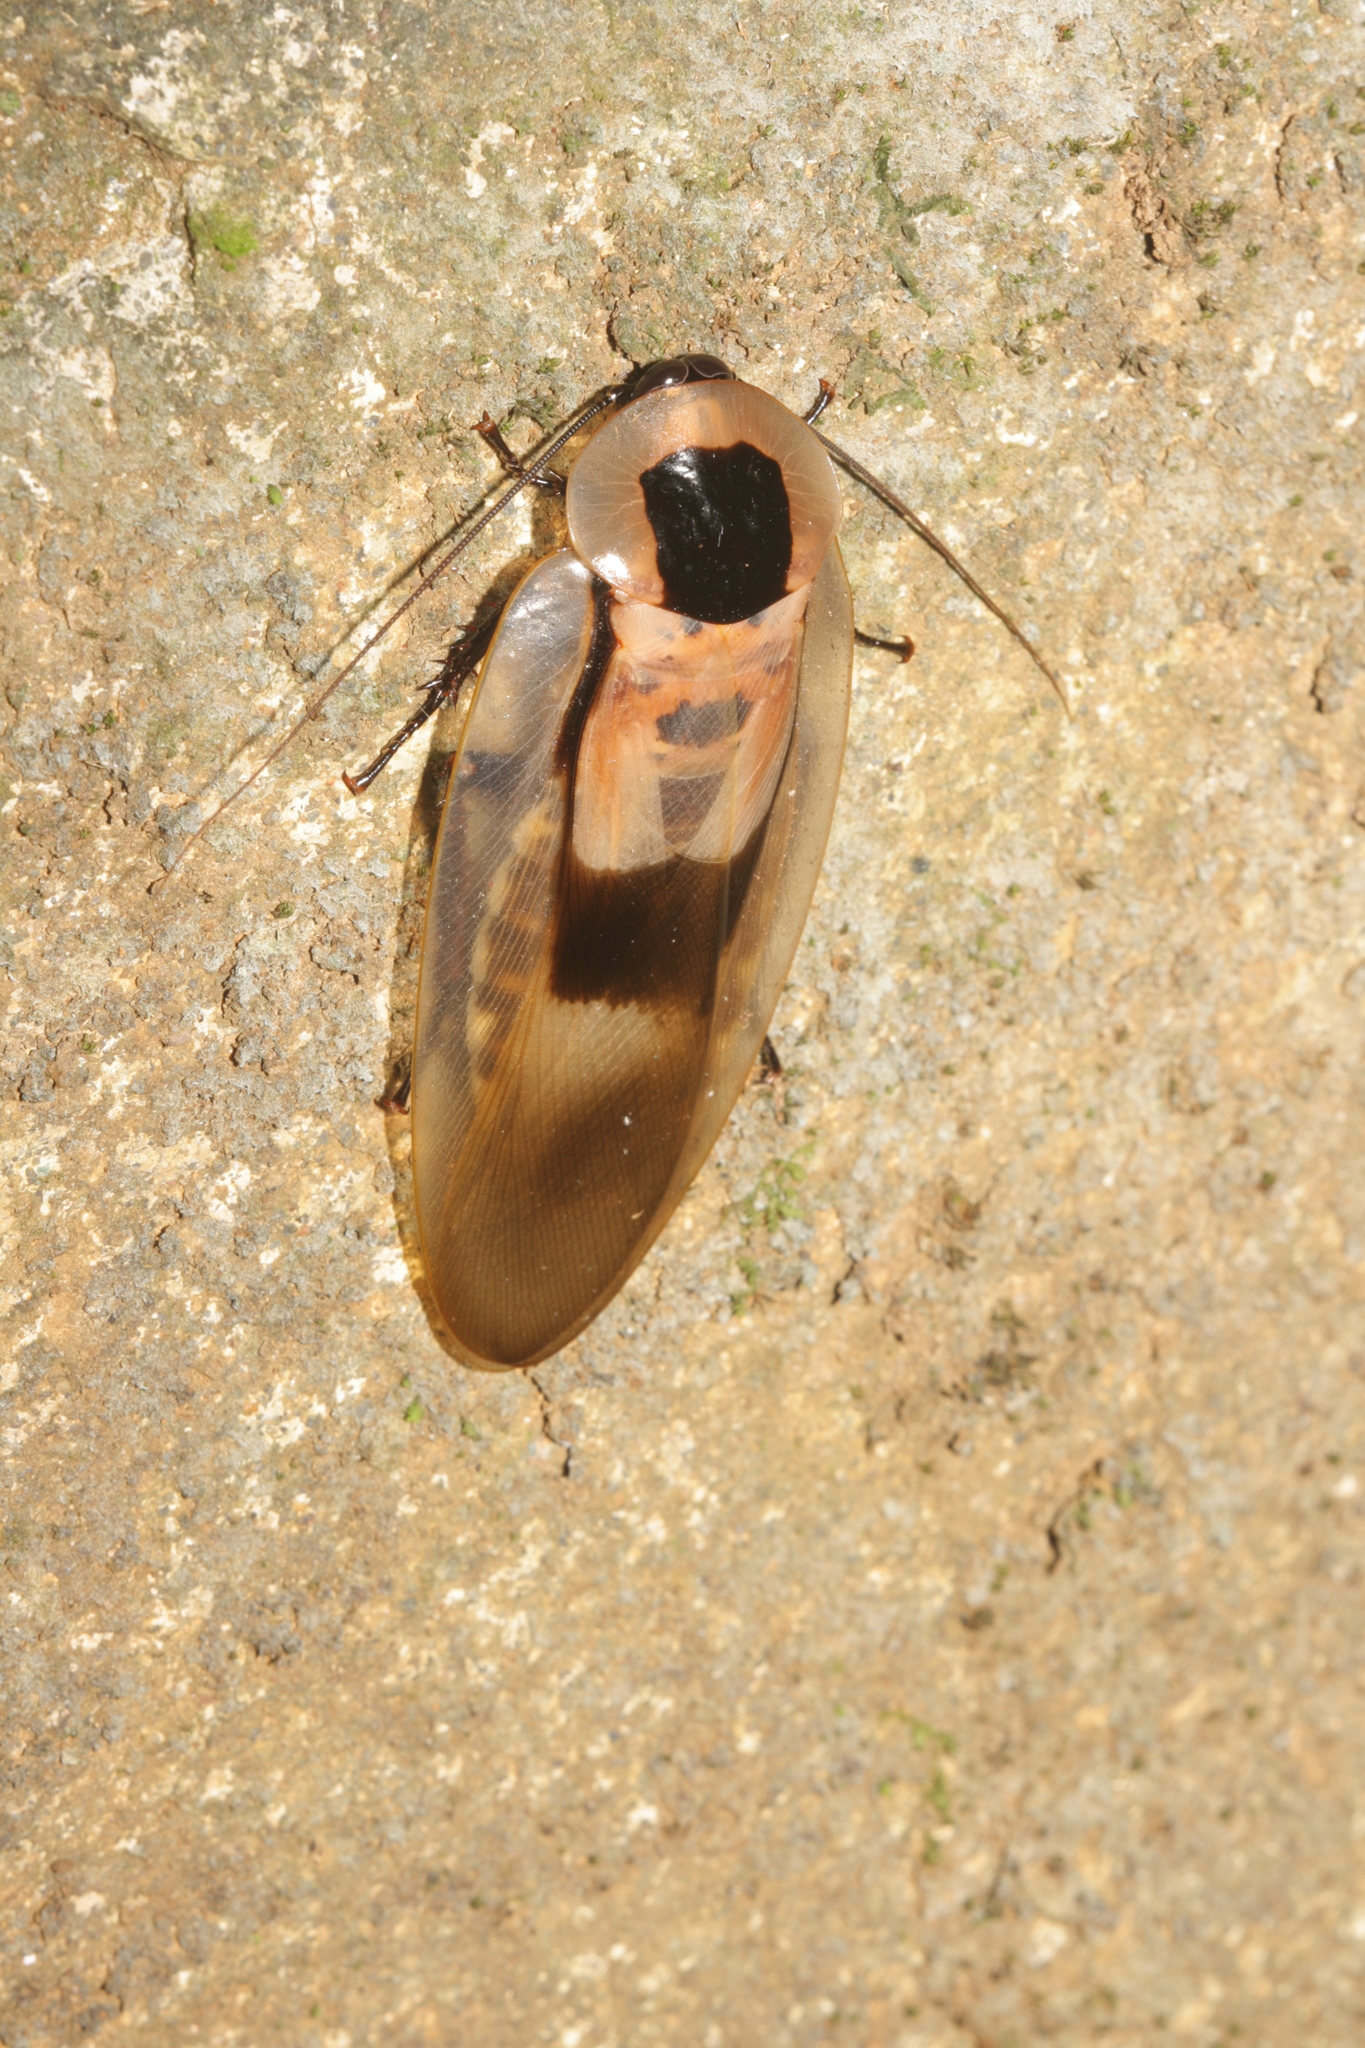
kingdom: Animalia
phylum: Arthropoda
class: Insecta
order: Blattodea
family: Blaberidae
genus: Blaberus
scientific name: Blaberus giganteus
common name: Giant cave cockroach
